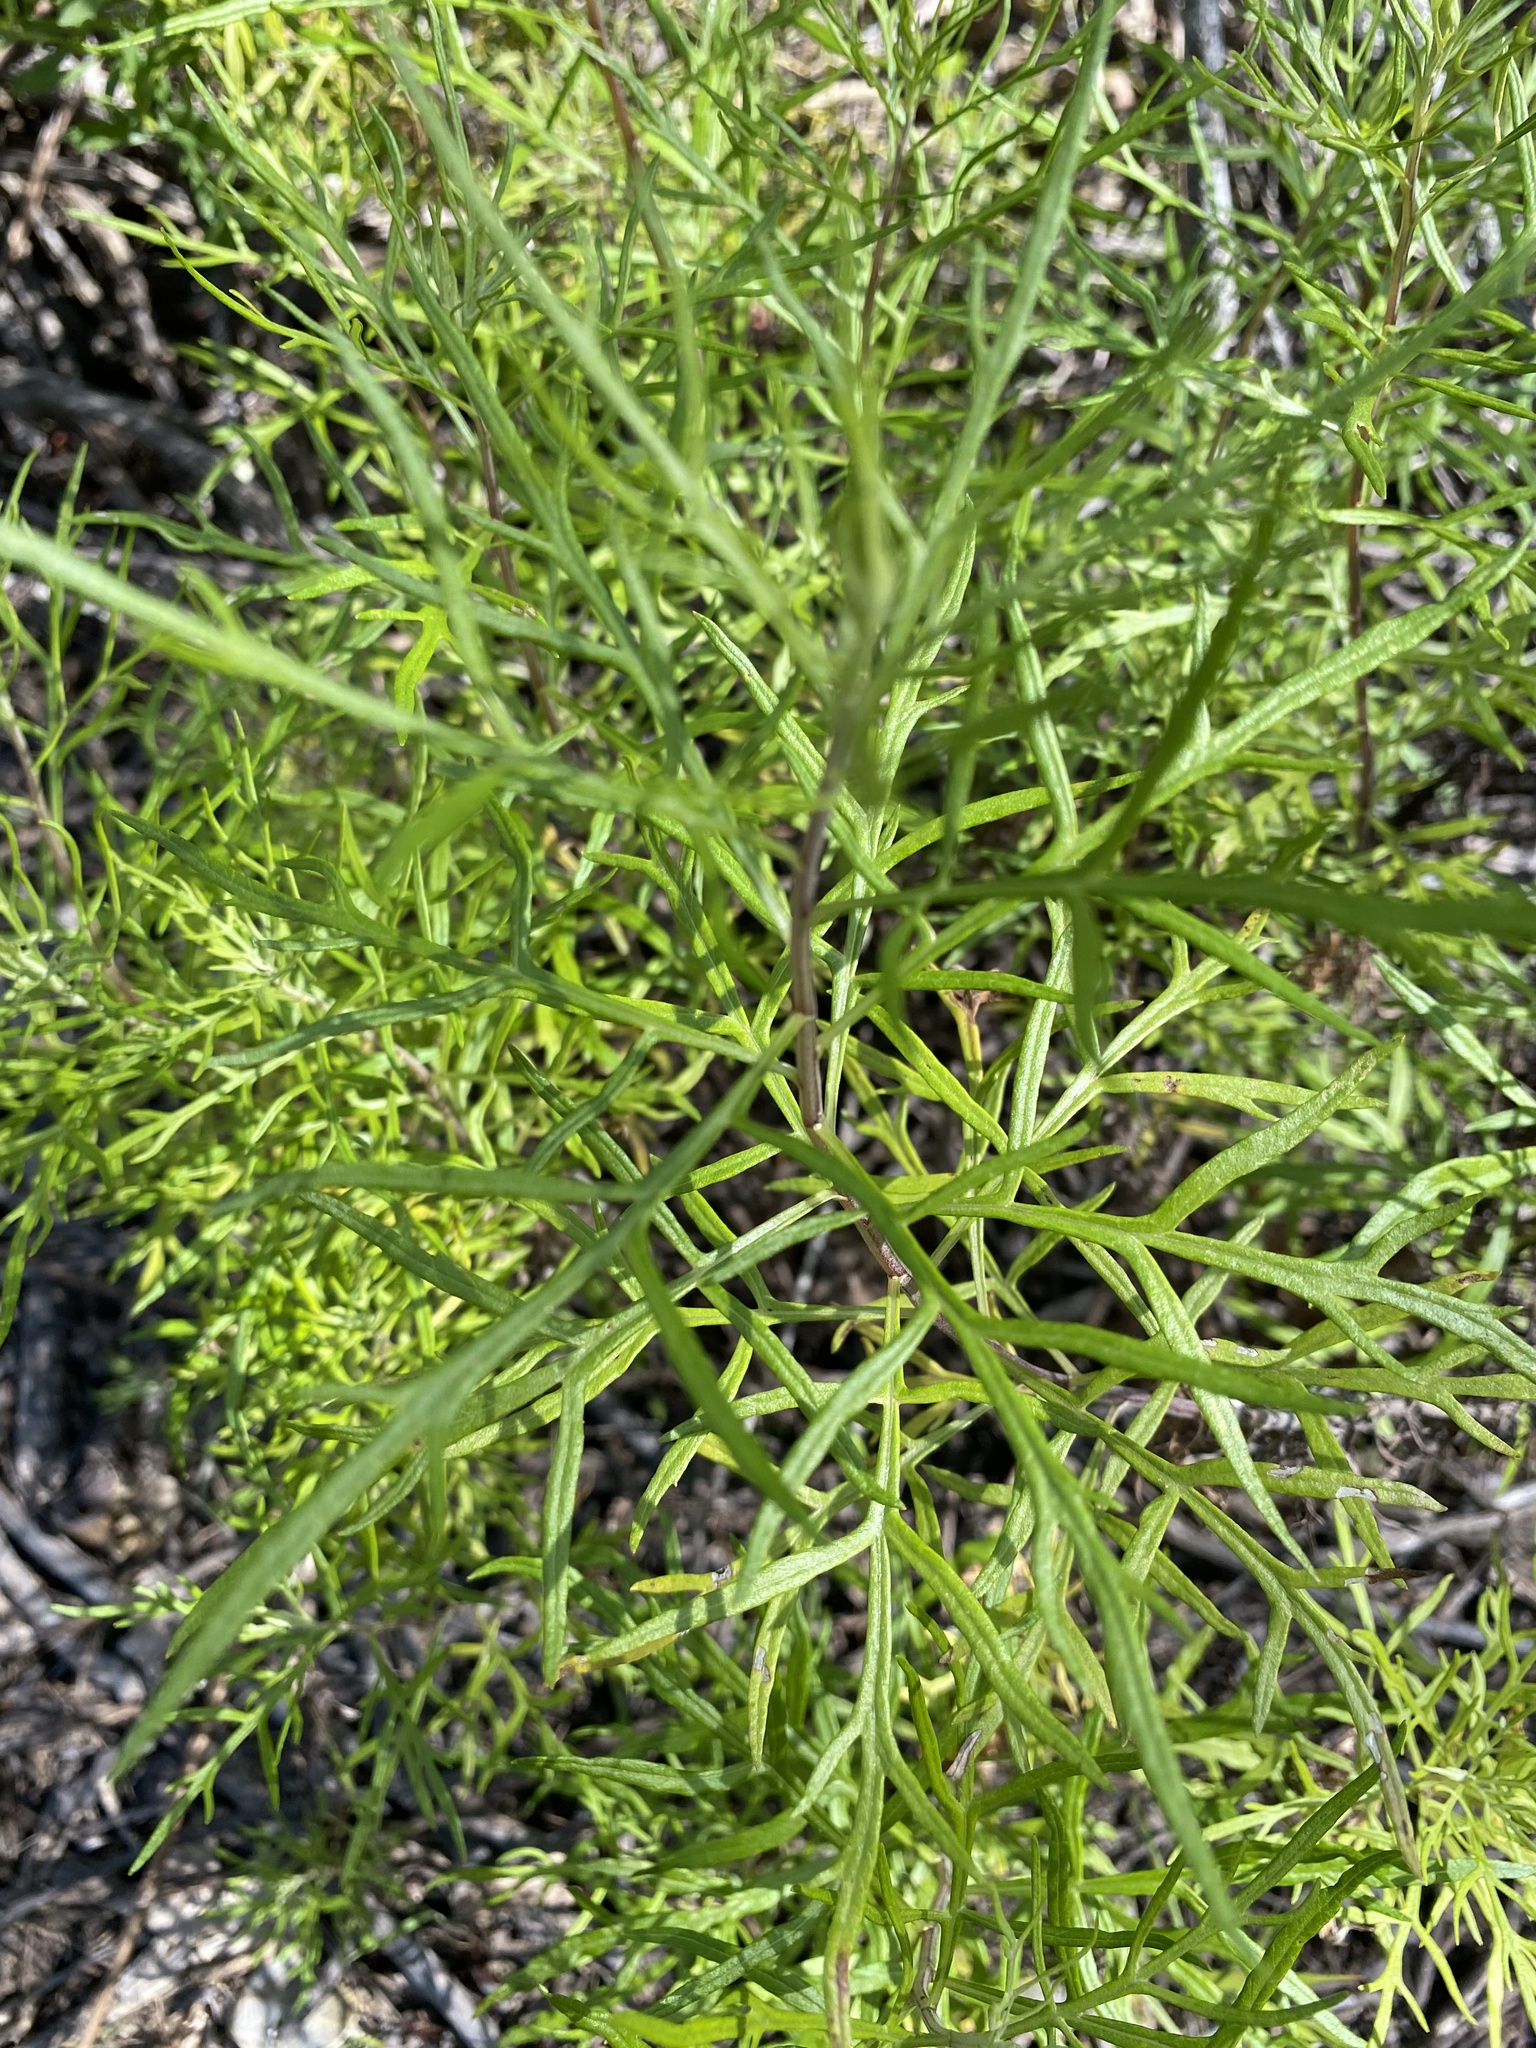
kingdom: Plantae
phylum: Tracheophyta
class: Magnoliopsida
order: Asterales
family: Asteraceae
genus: Artemisia
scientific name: Artemisia palmeri
